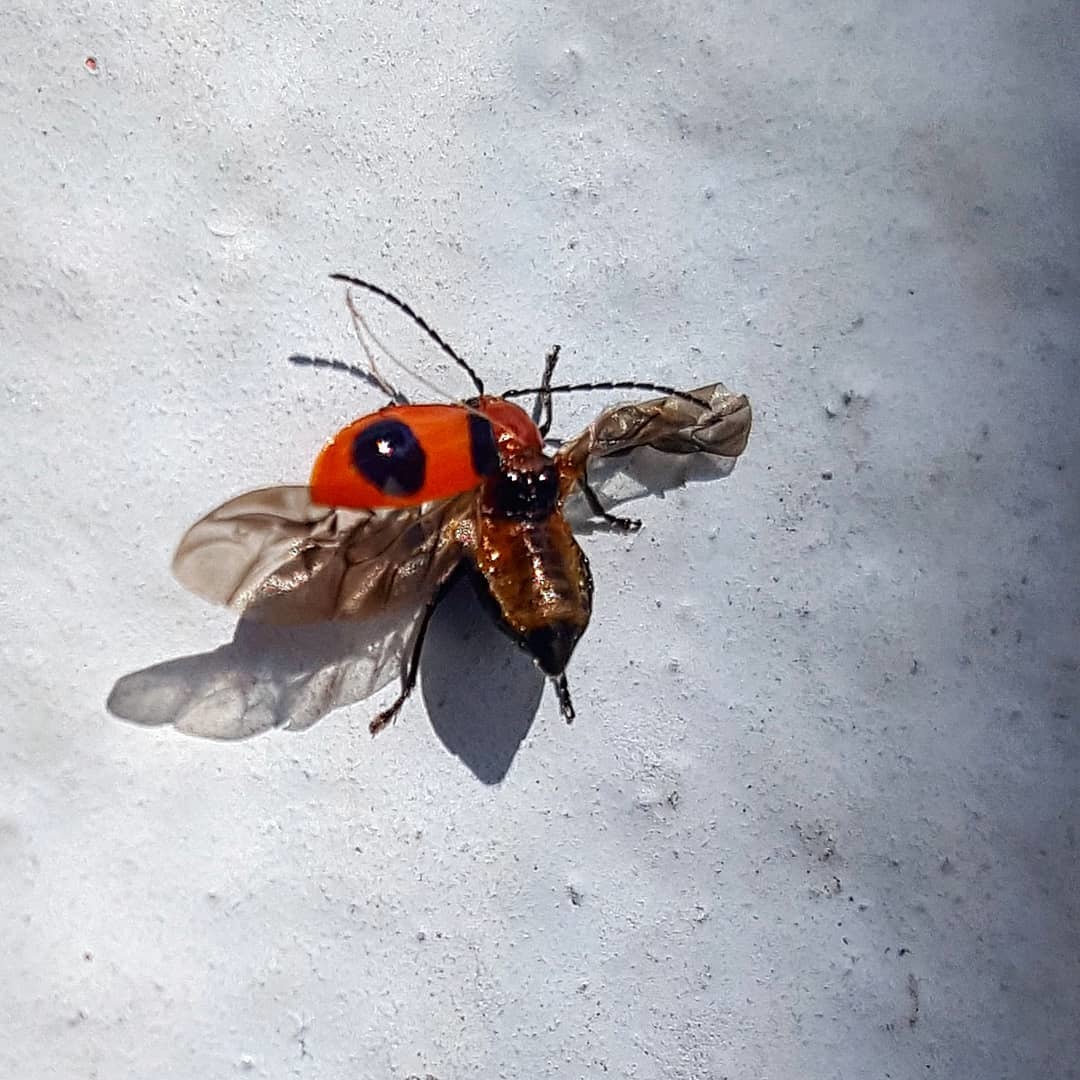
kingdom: Animalia
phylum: Arthropoda
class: Insecta
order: Coleoptera
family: Chrysomelidae
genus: Isotes
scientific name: Isotes
